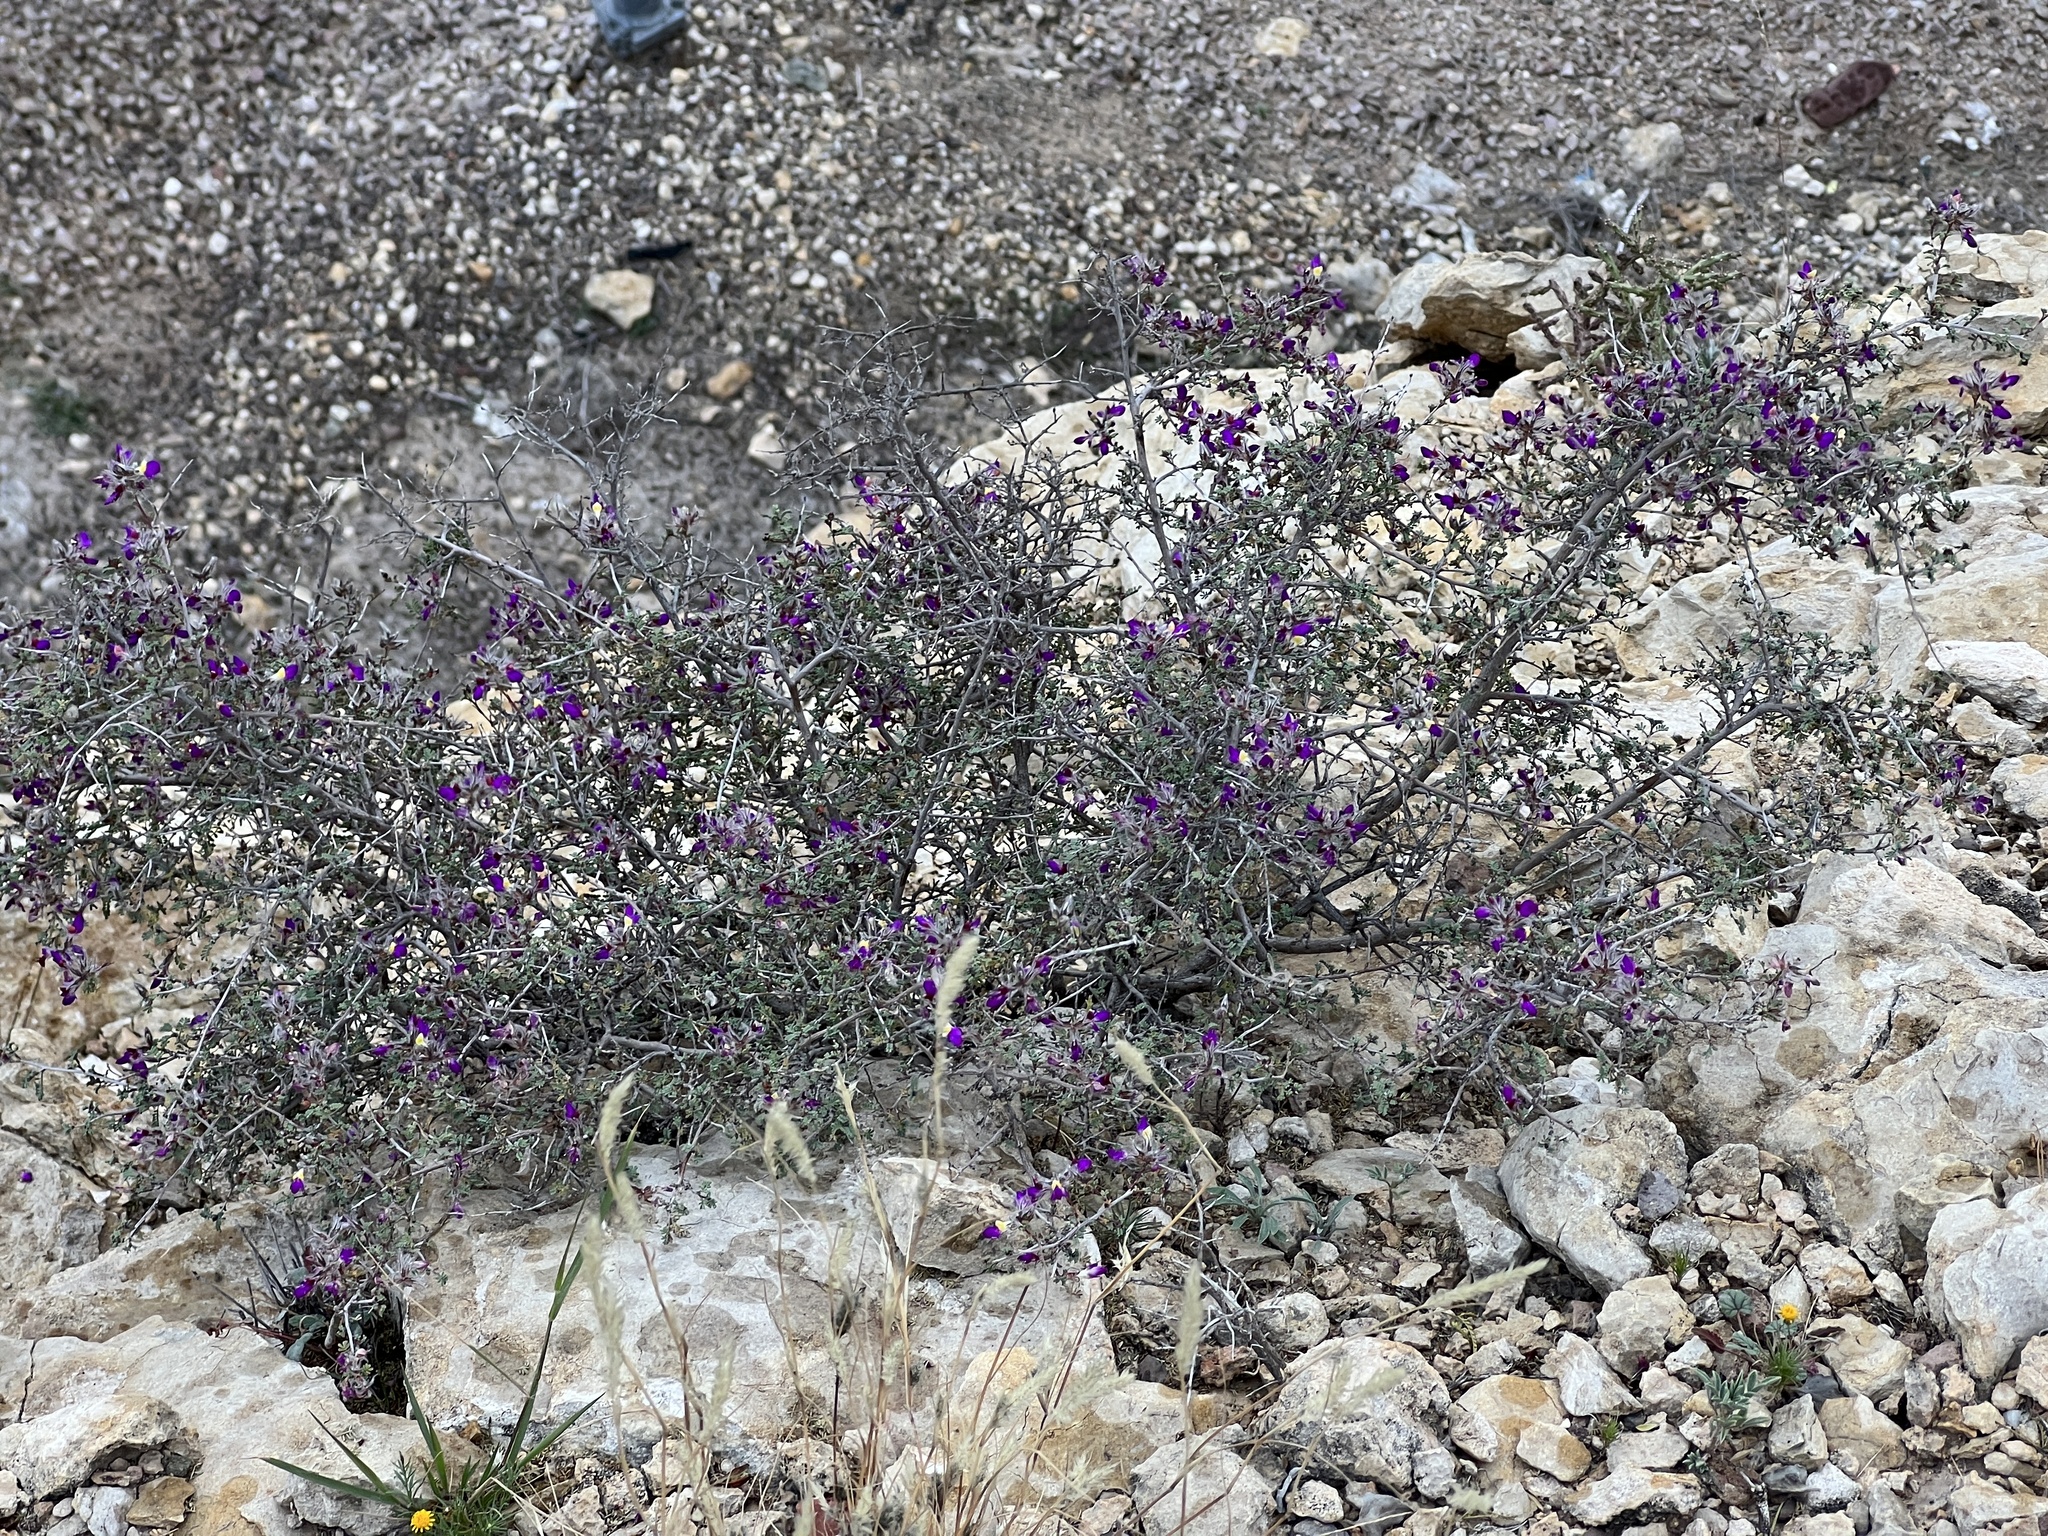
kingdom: Plantae
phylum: Tracheophyta
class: Magnoliopsida
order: Fabales
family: Fabaceae
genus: Dalea
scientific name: Dalea formosa
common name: Feather-plume dalea
